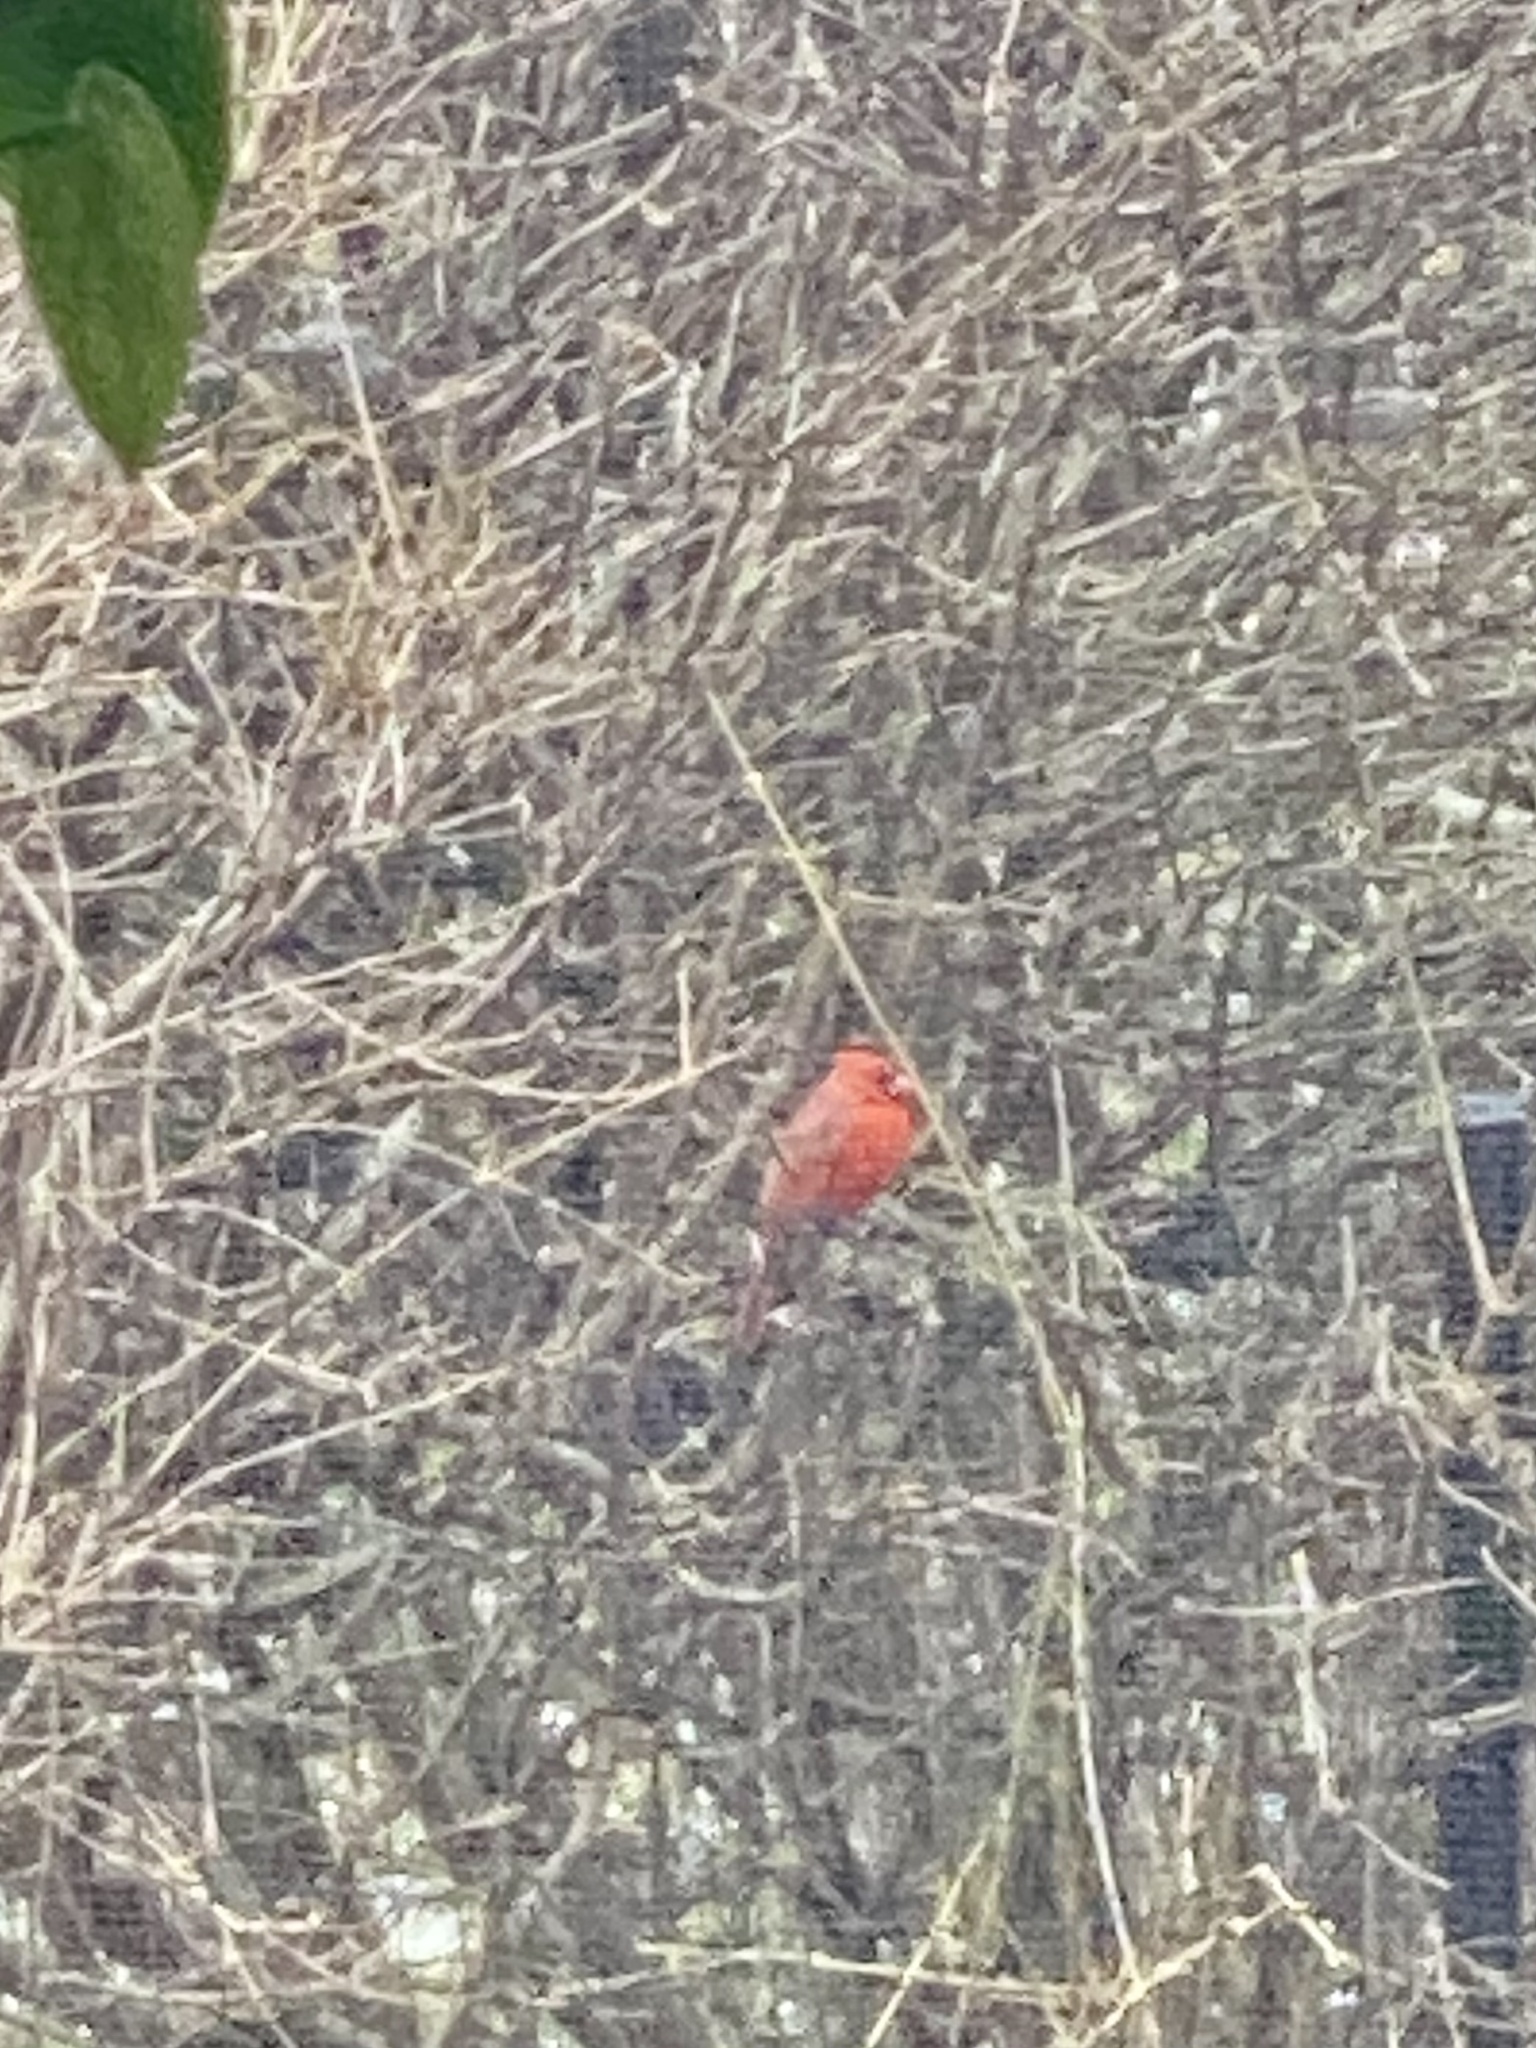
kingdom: Animalia
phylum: Chordata
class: Aves
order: Passeriformes
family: Cardinalidae
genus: Cardinalis
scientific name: Cardinalis cardinalis
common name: Northern cardinal
